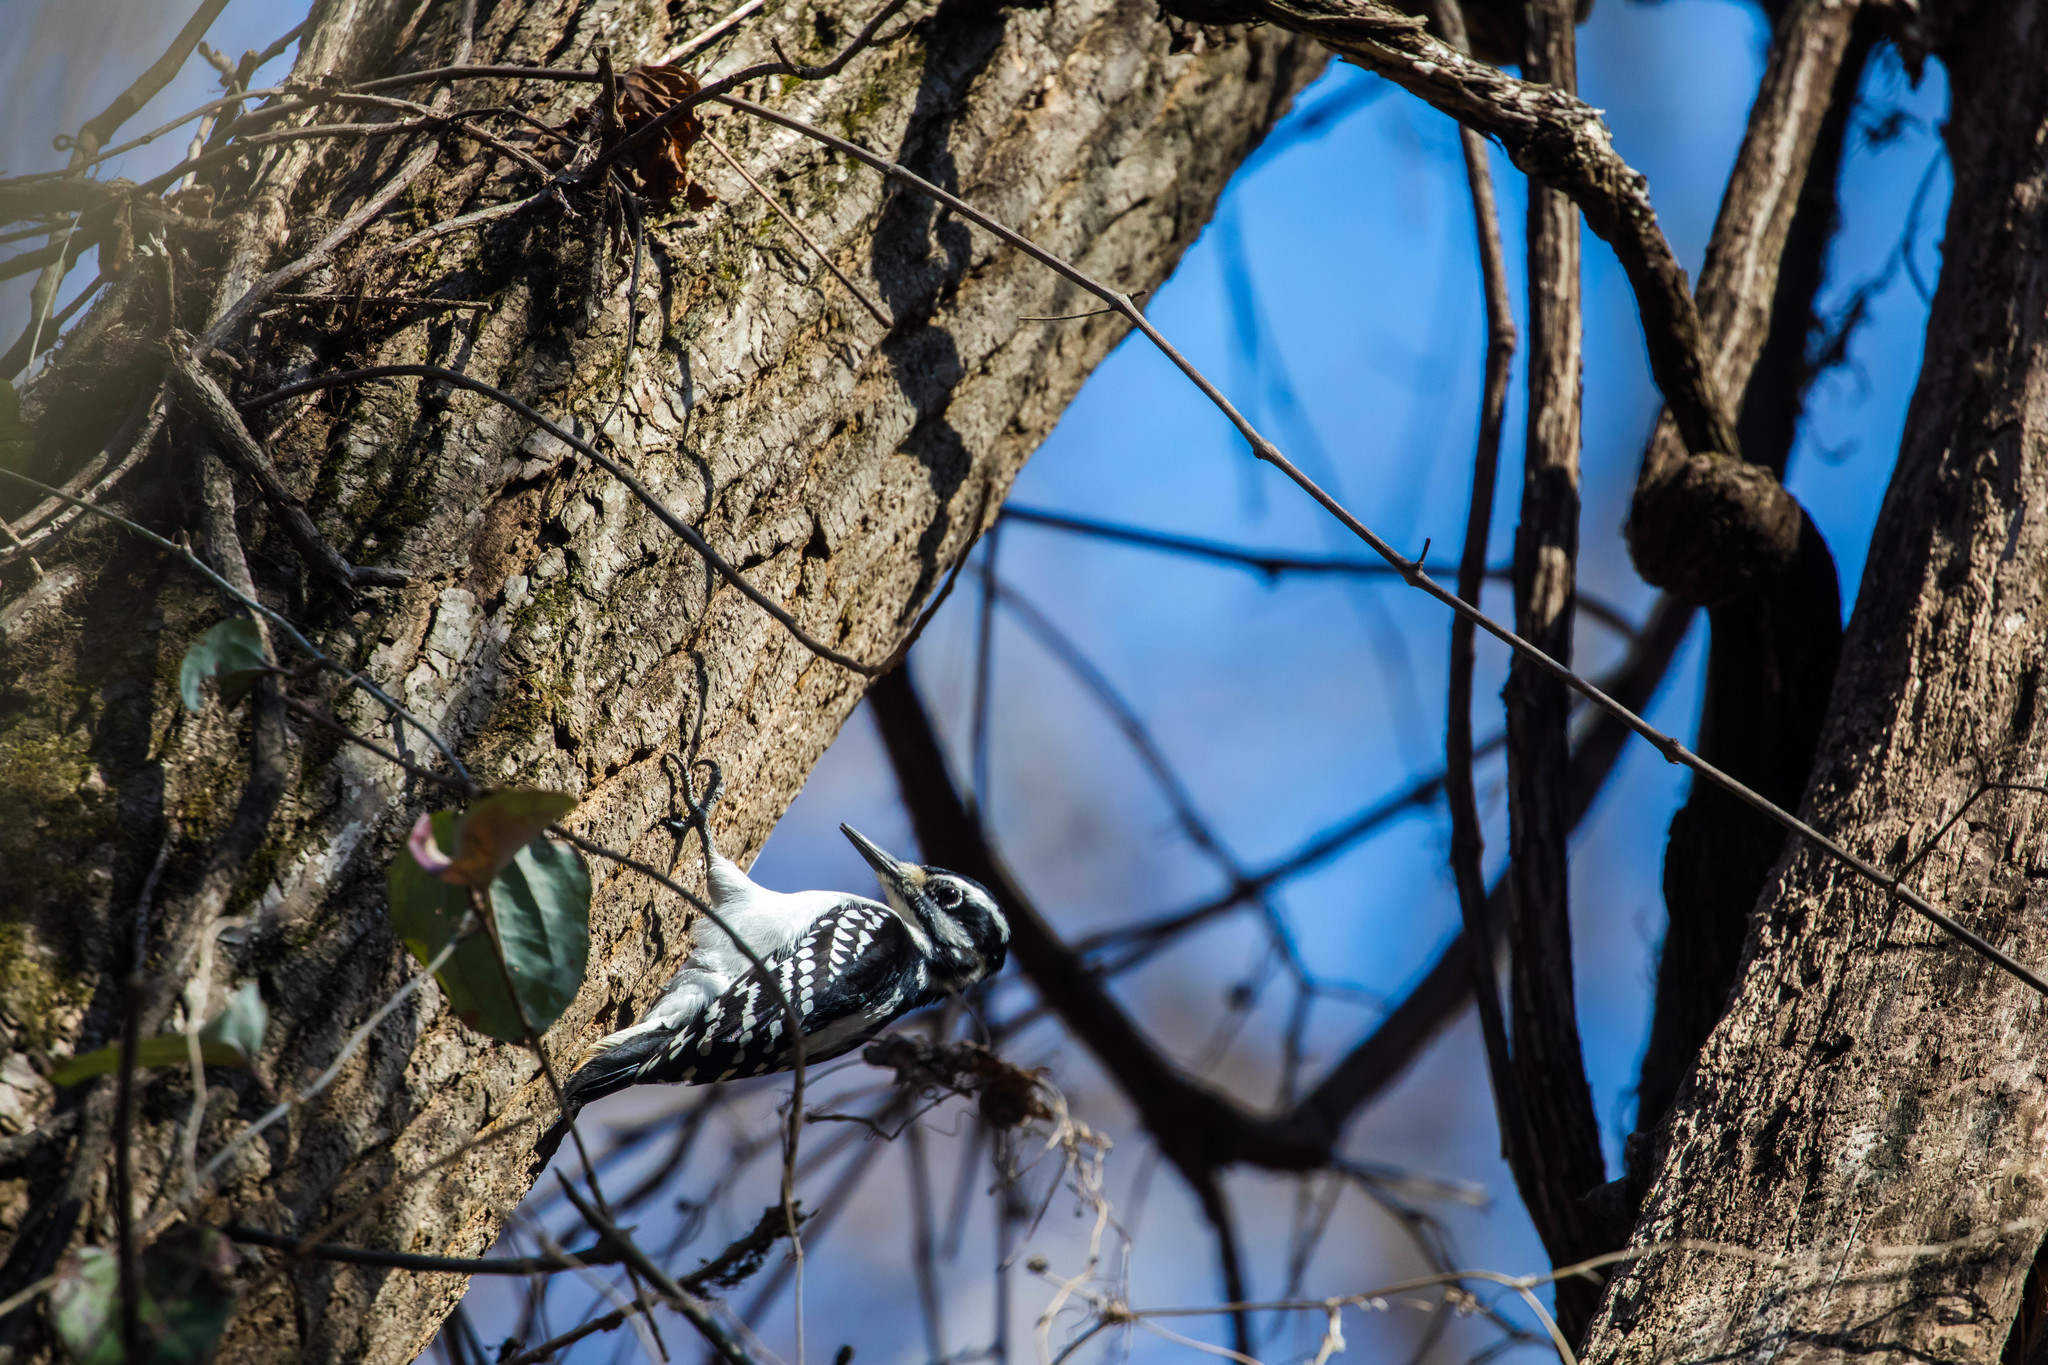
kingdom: Animalia
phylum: Chordata
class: Aves
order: Piciformes
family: Picidae
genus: Leuconotopicus
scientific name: Leuconotopicus villosus
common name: Hairy woodpecker
